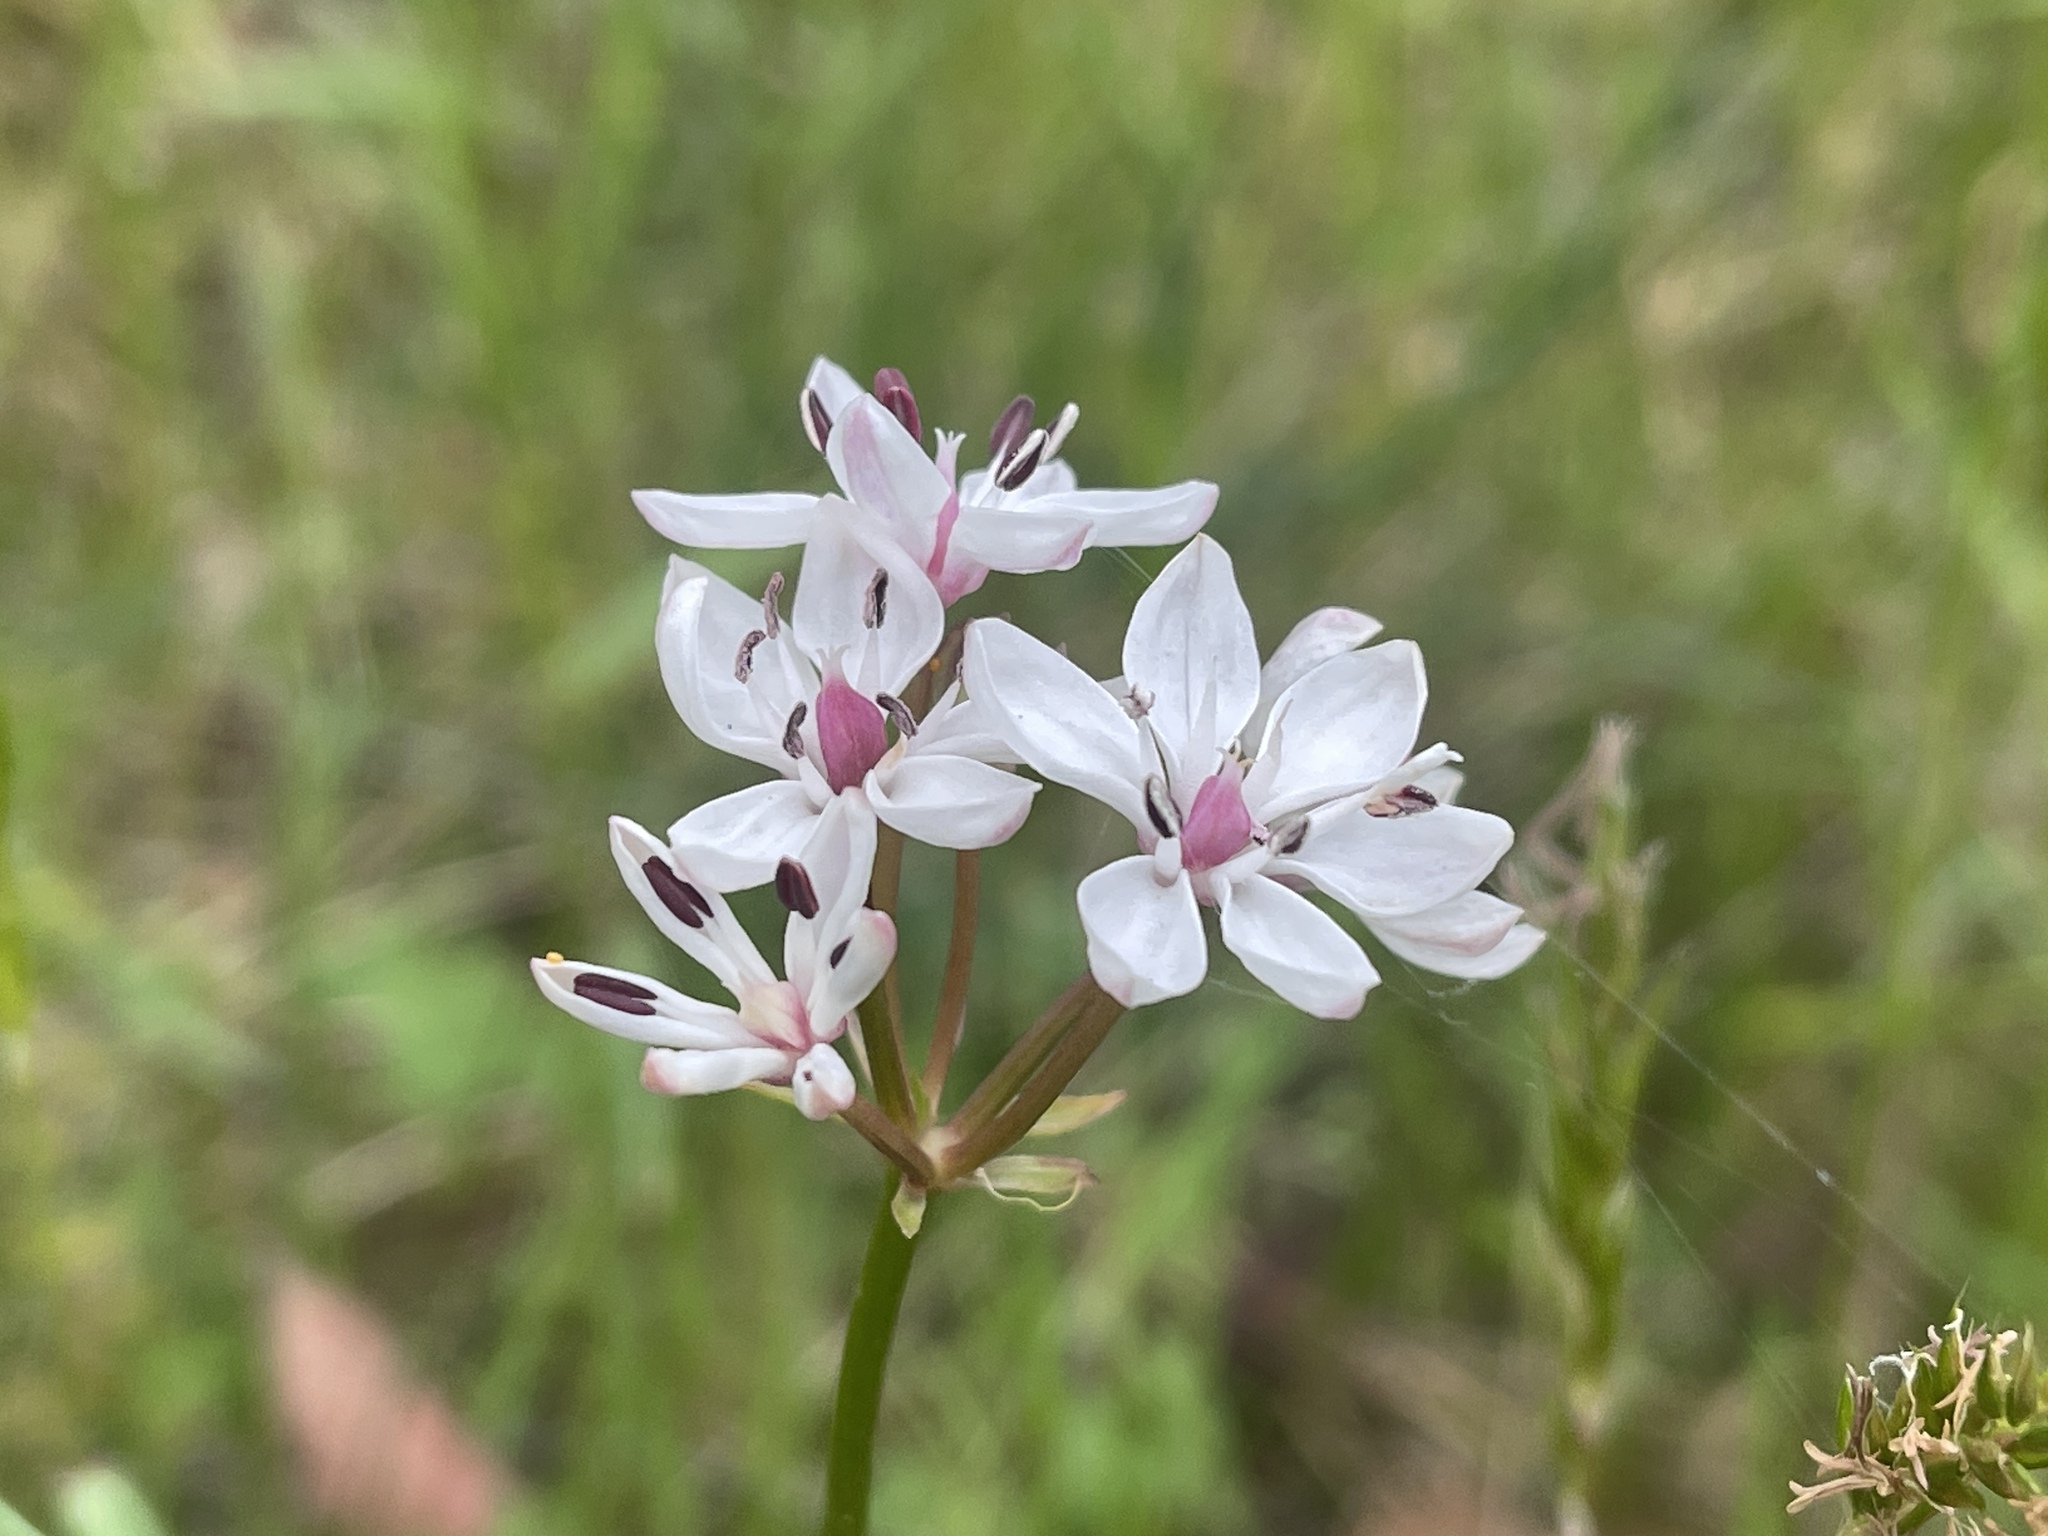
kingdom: Plantae
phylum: Tracheophyta
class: Liliopsida
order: Liliales
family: Colchicaceae
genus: Burchardia
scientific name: Burchardia umbellata
